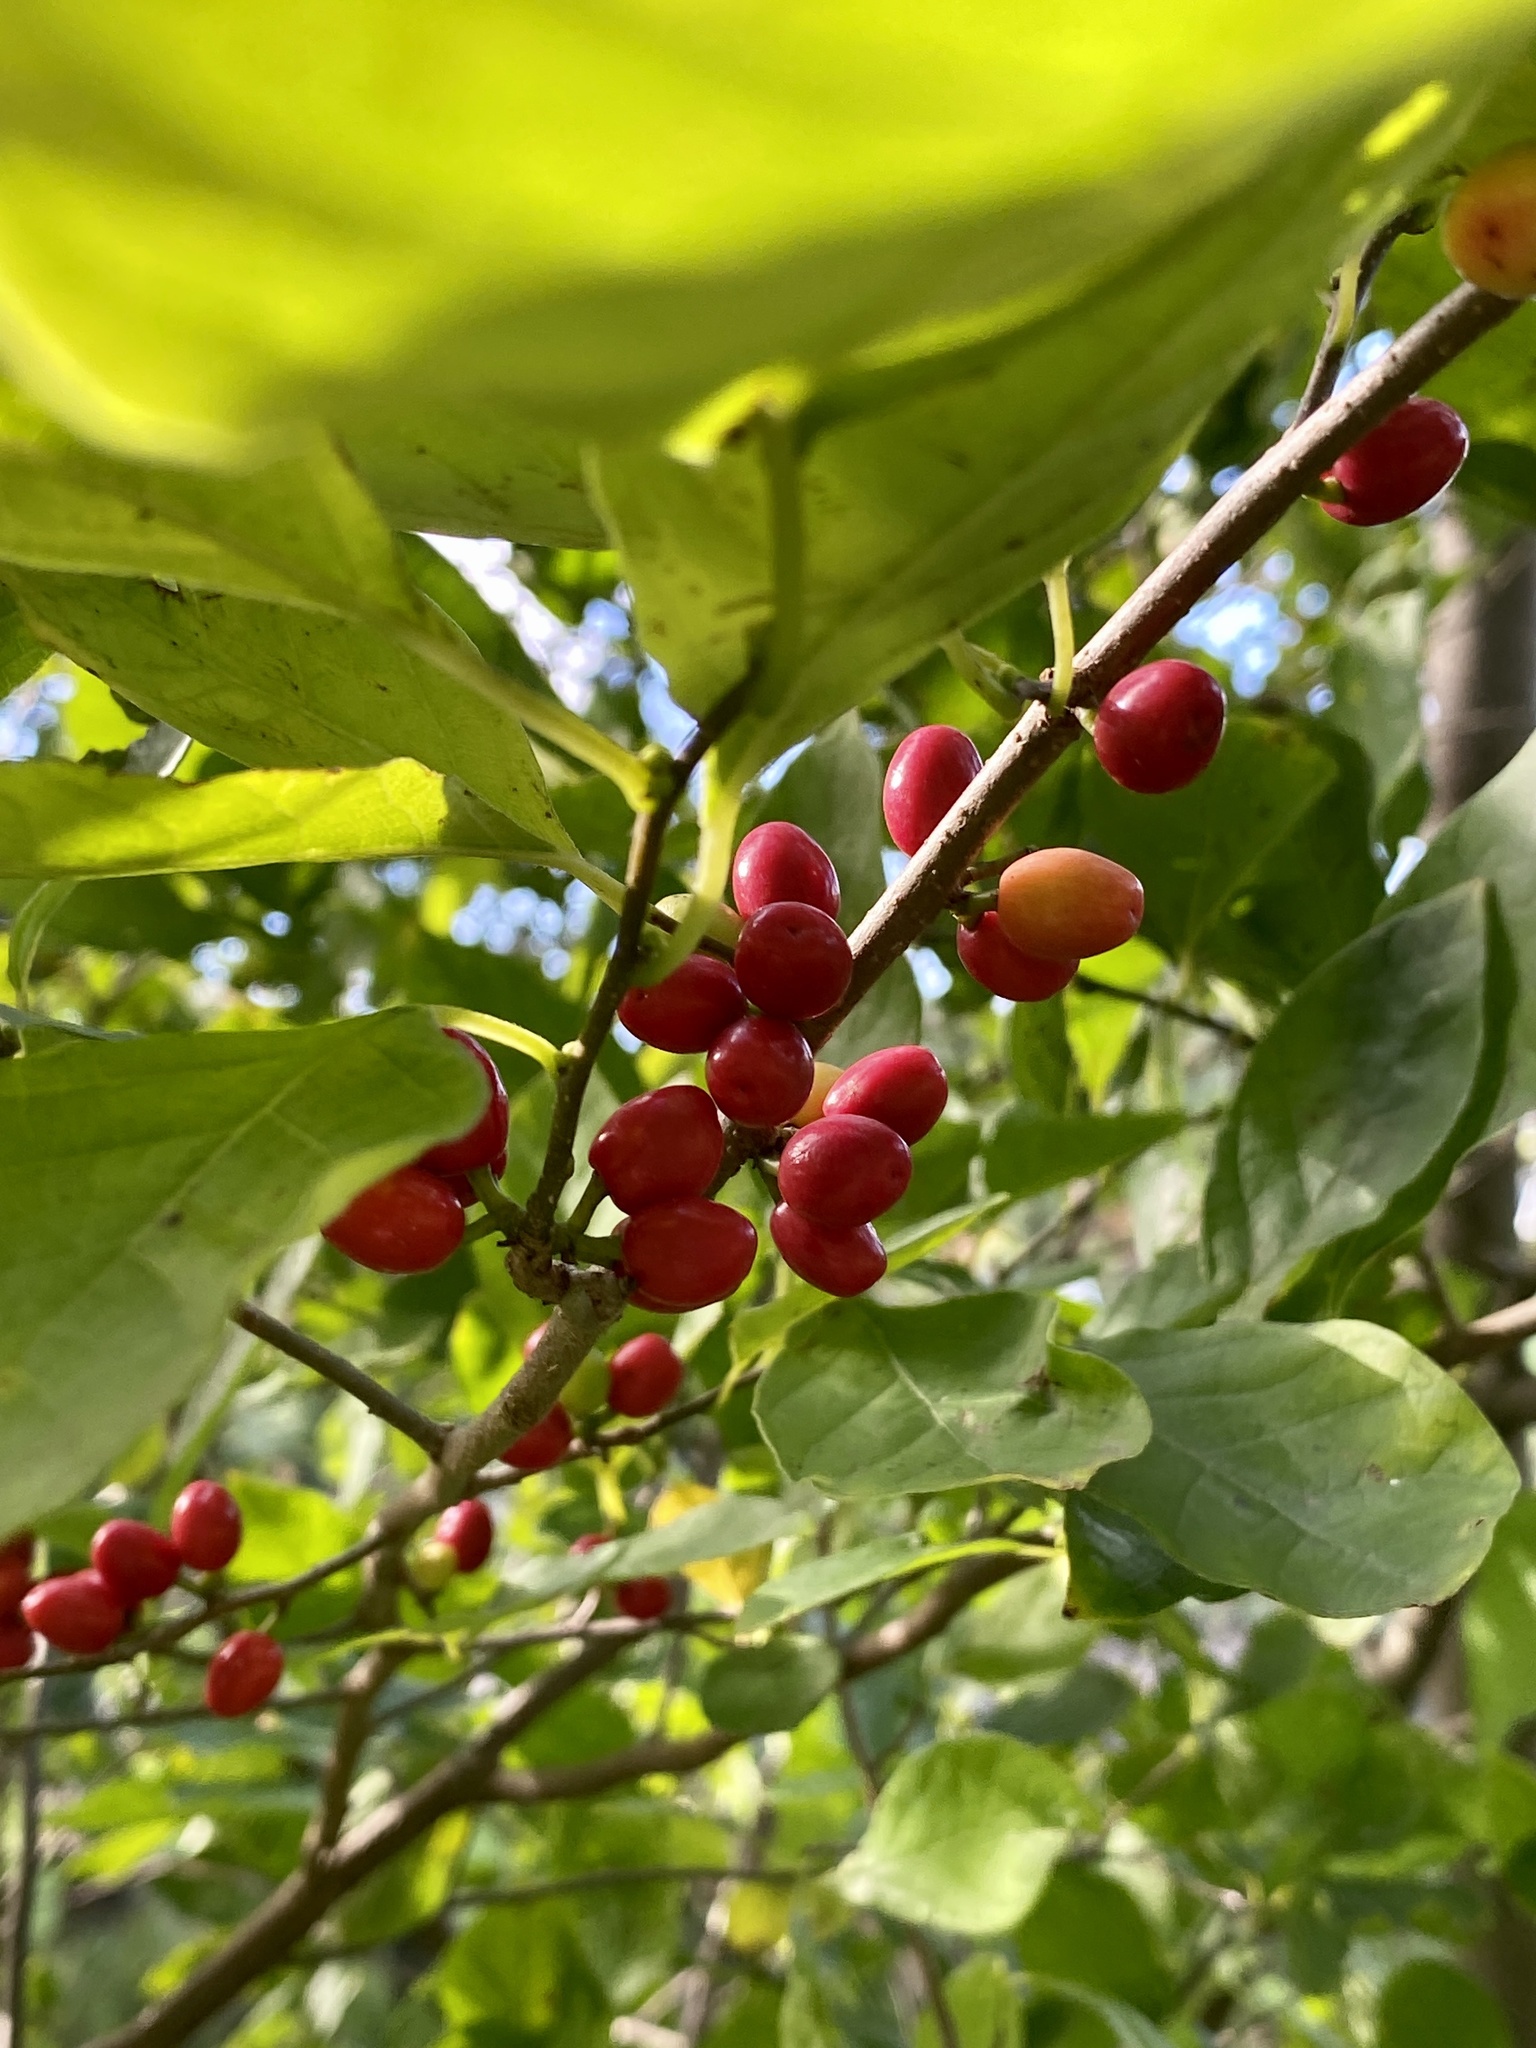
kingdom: Plantae
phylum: Tracheophyta
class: Magnoliopsida
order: Laurales
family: Lauraceae
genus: Lindera
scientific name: Lindera benzoin
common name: Spicebush
